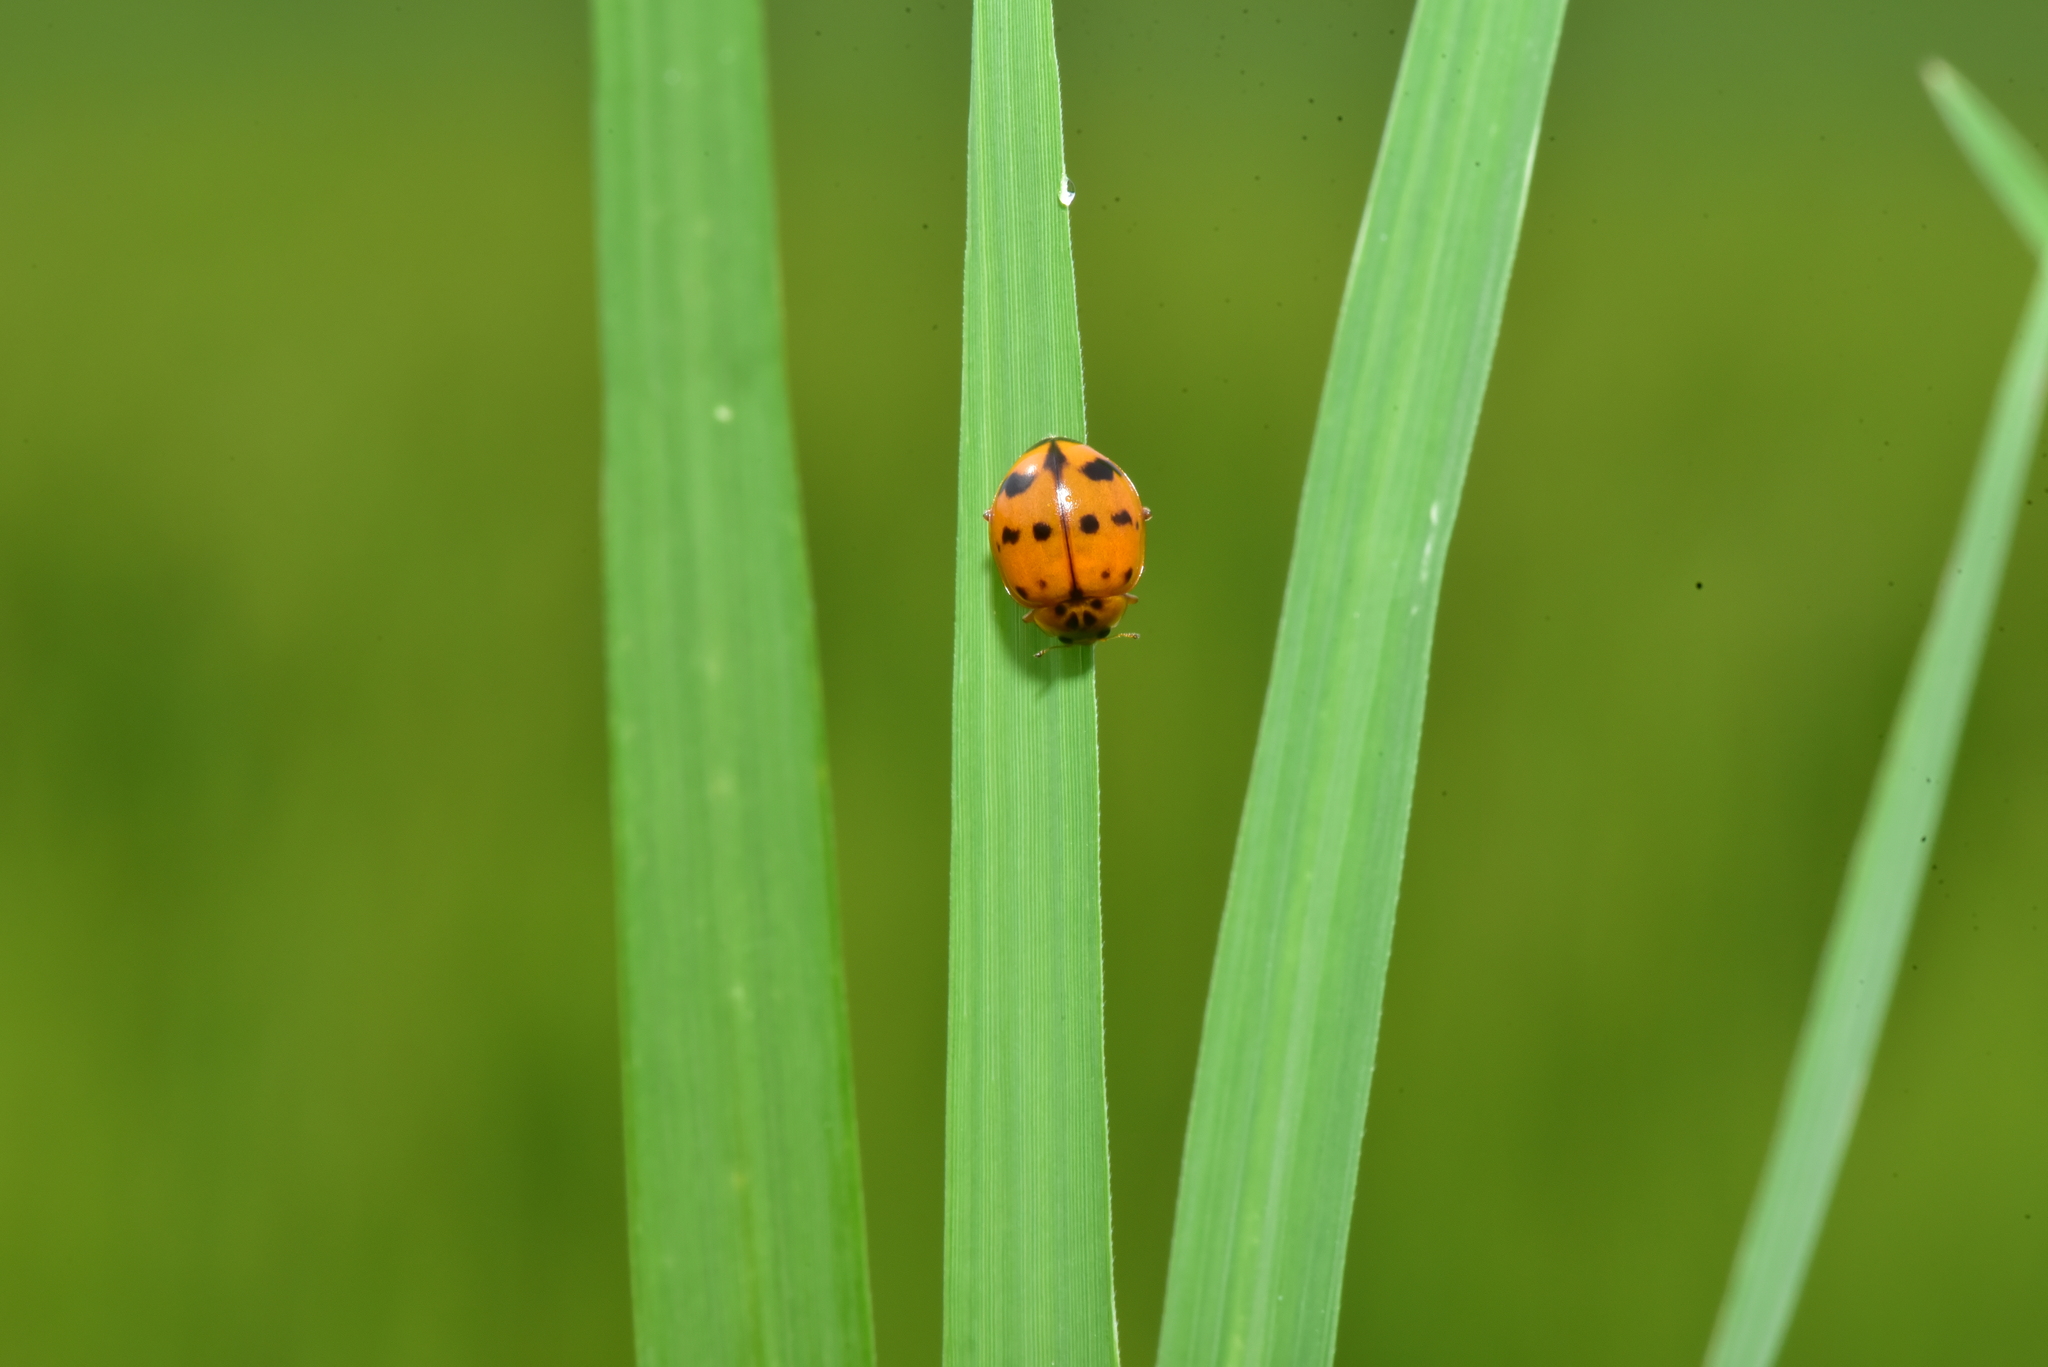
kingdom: Animalia
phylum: Arthropoda
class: Insecta
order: Coleoptera
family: Coccinellidae
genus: Harmonia
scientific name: Harmonia octomaculata
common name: Lady beetle
